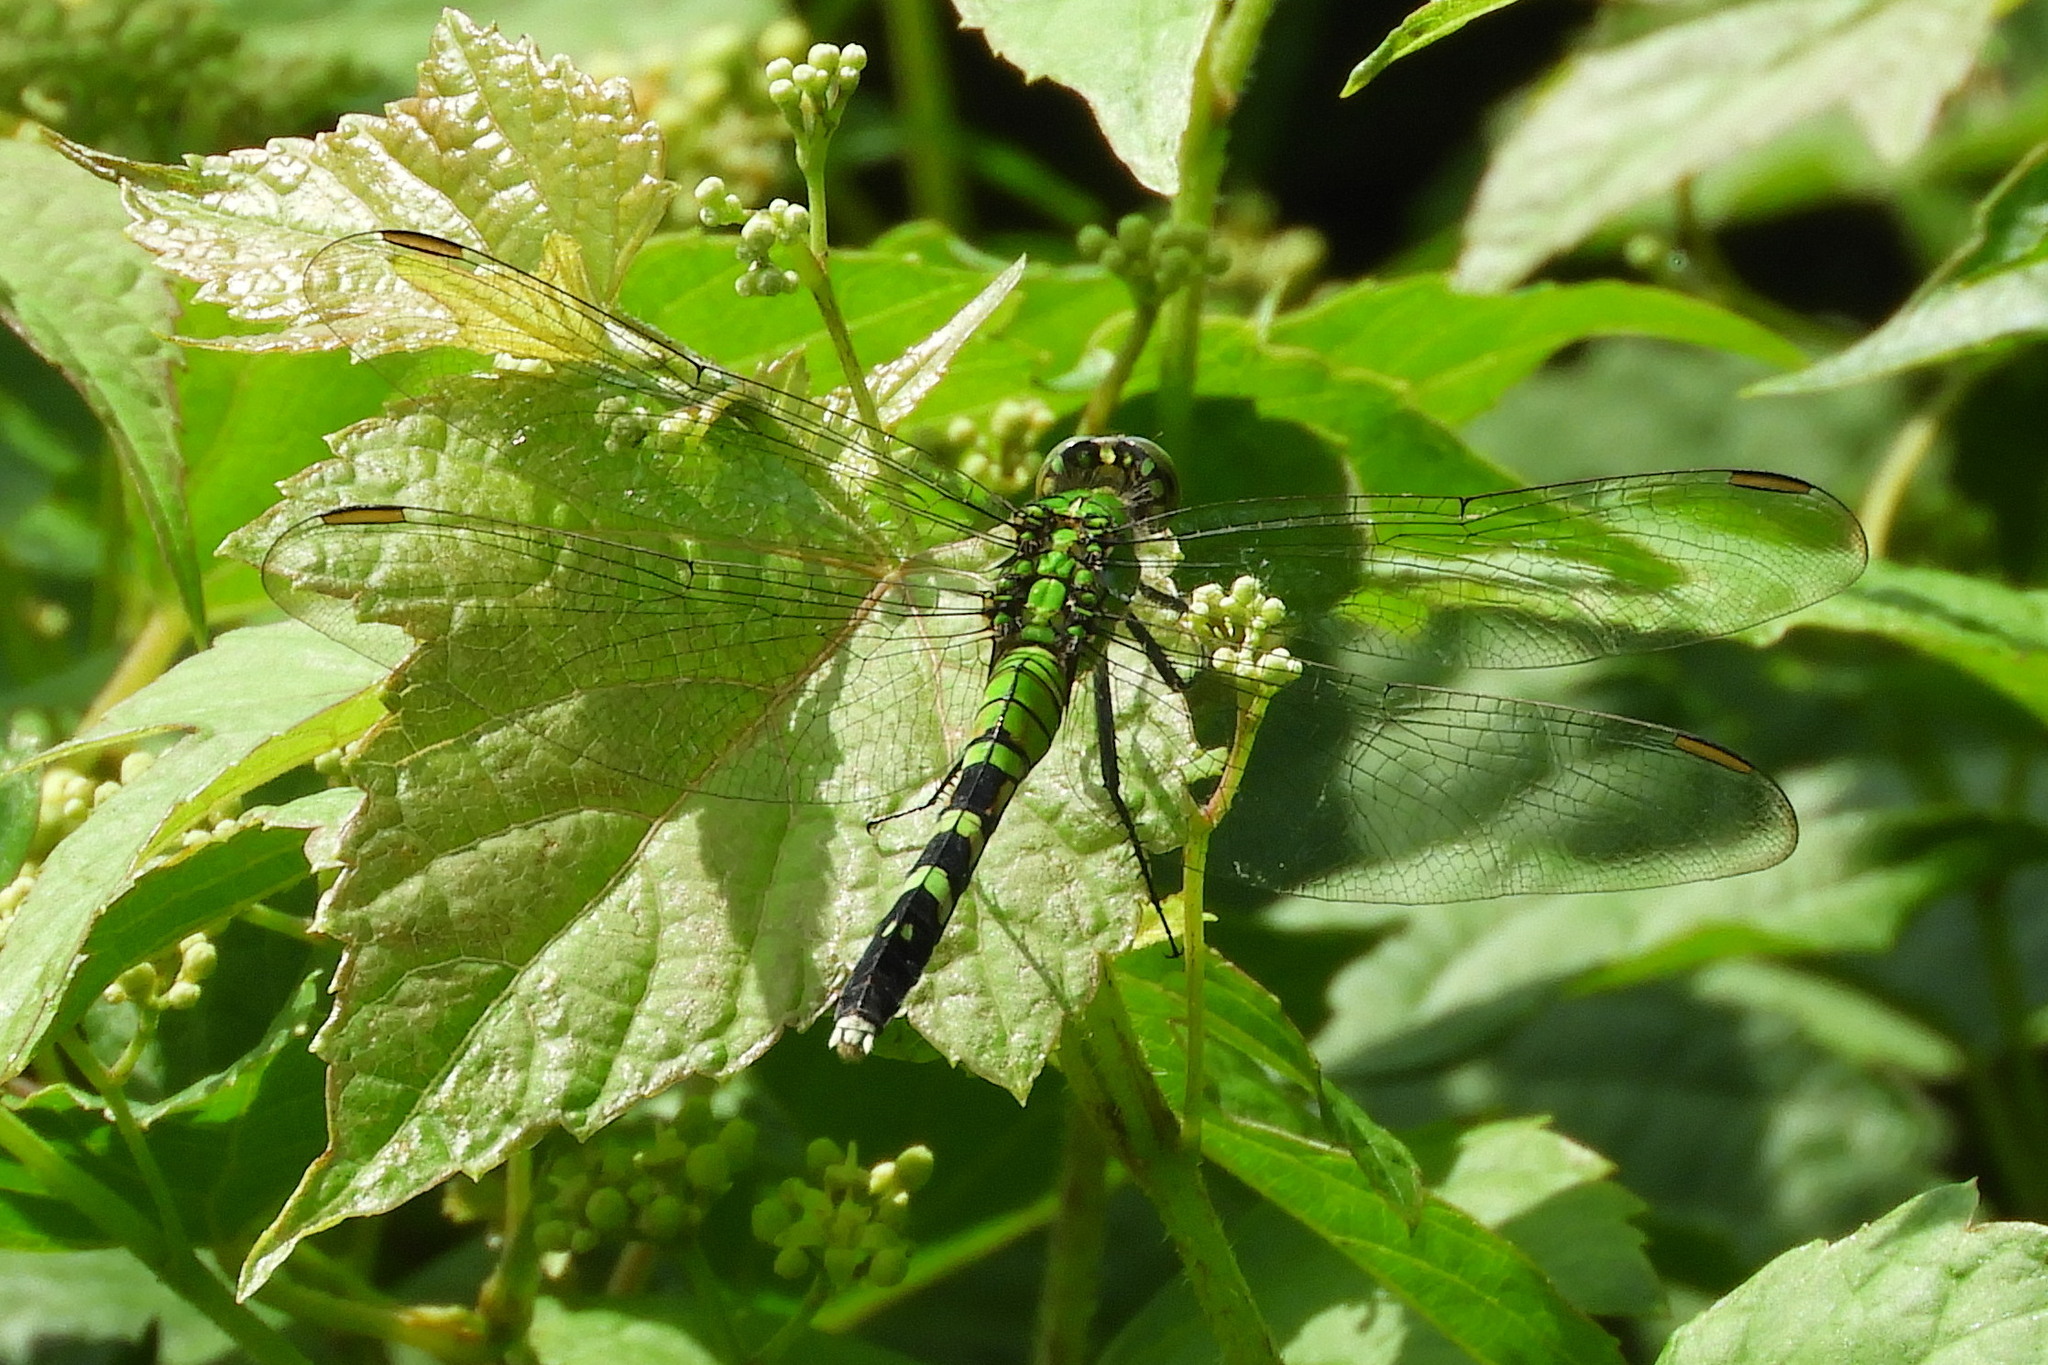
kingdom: Animalia
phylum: Arthropoda
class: Insecta
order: Odonata
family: Libellulidae
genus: Erythemis
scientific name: Erythemis simplicicollis
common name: Eastern pondhawk
